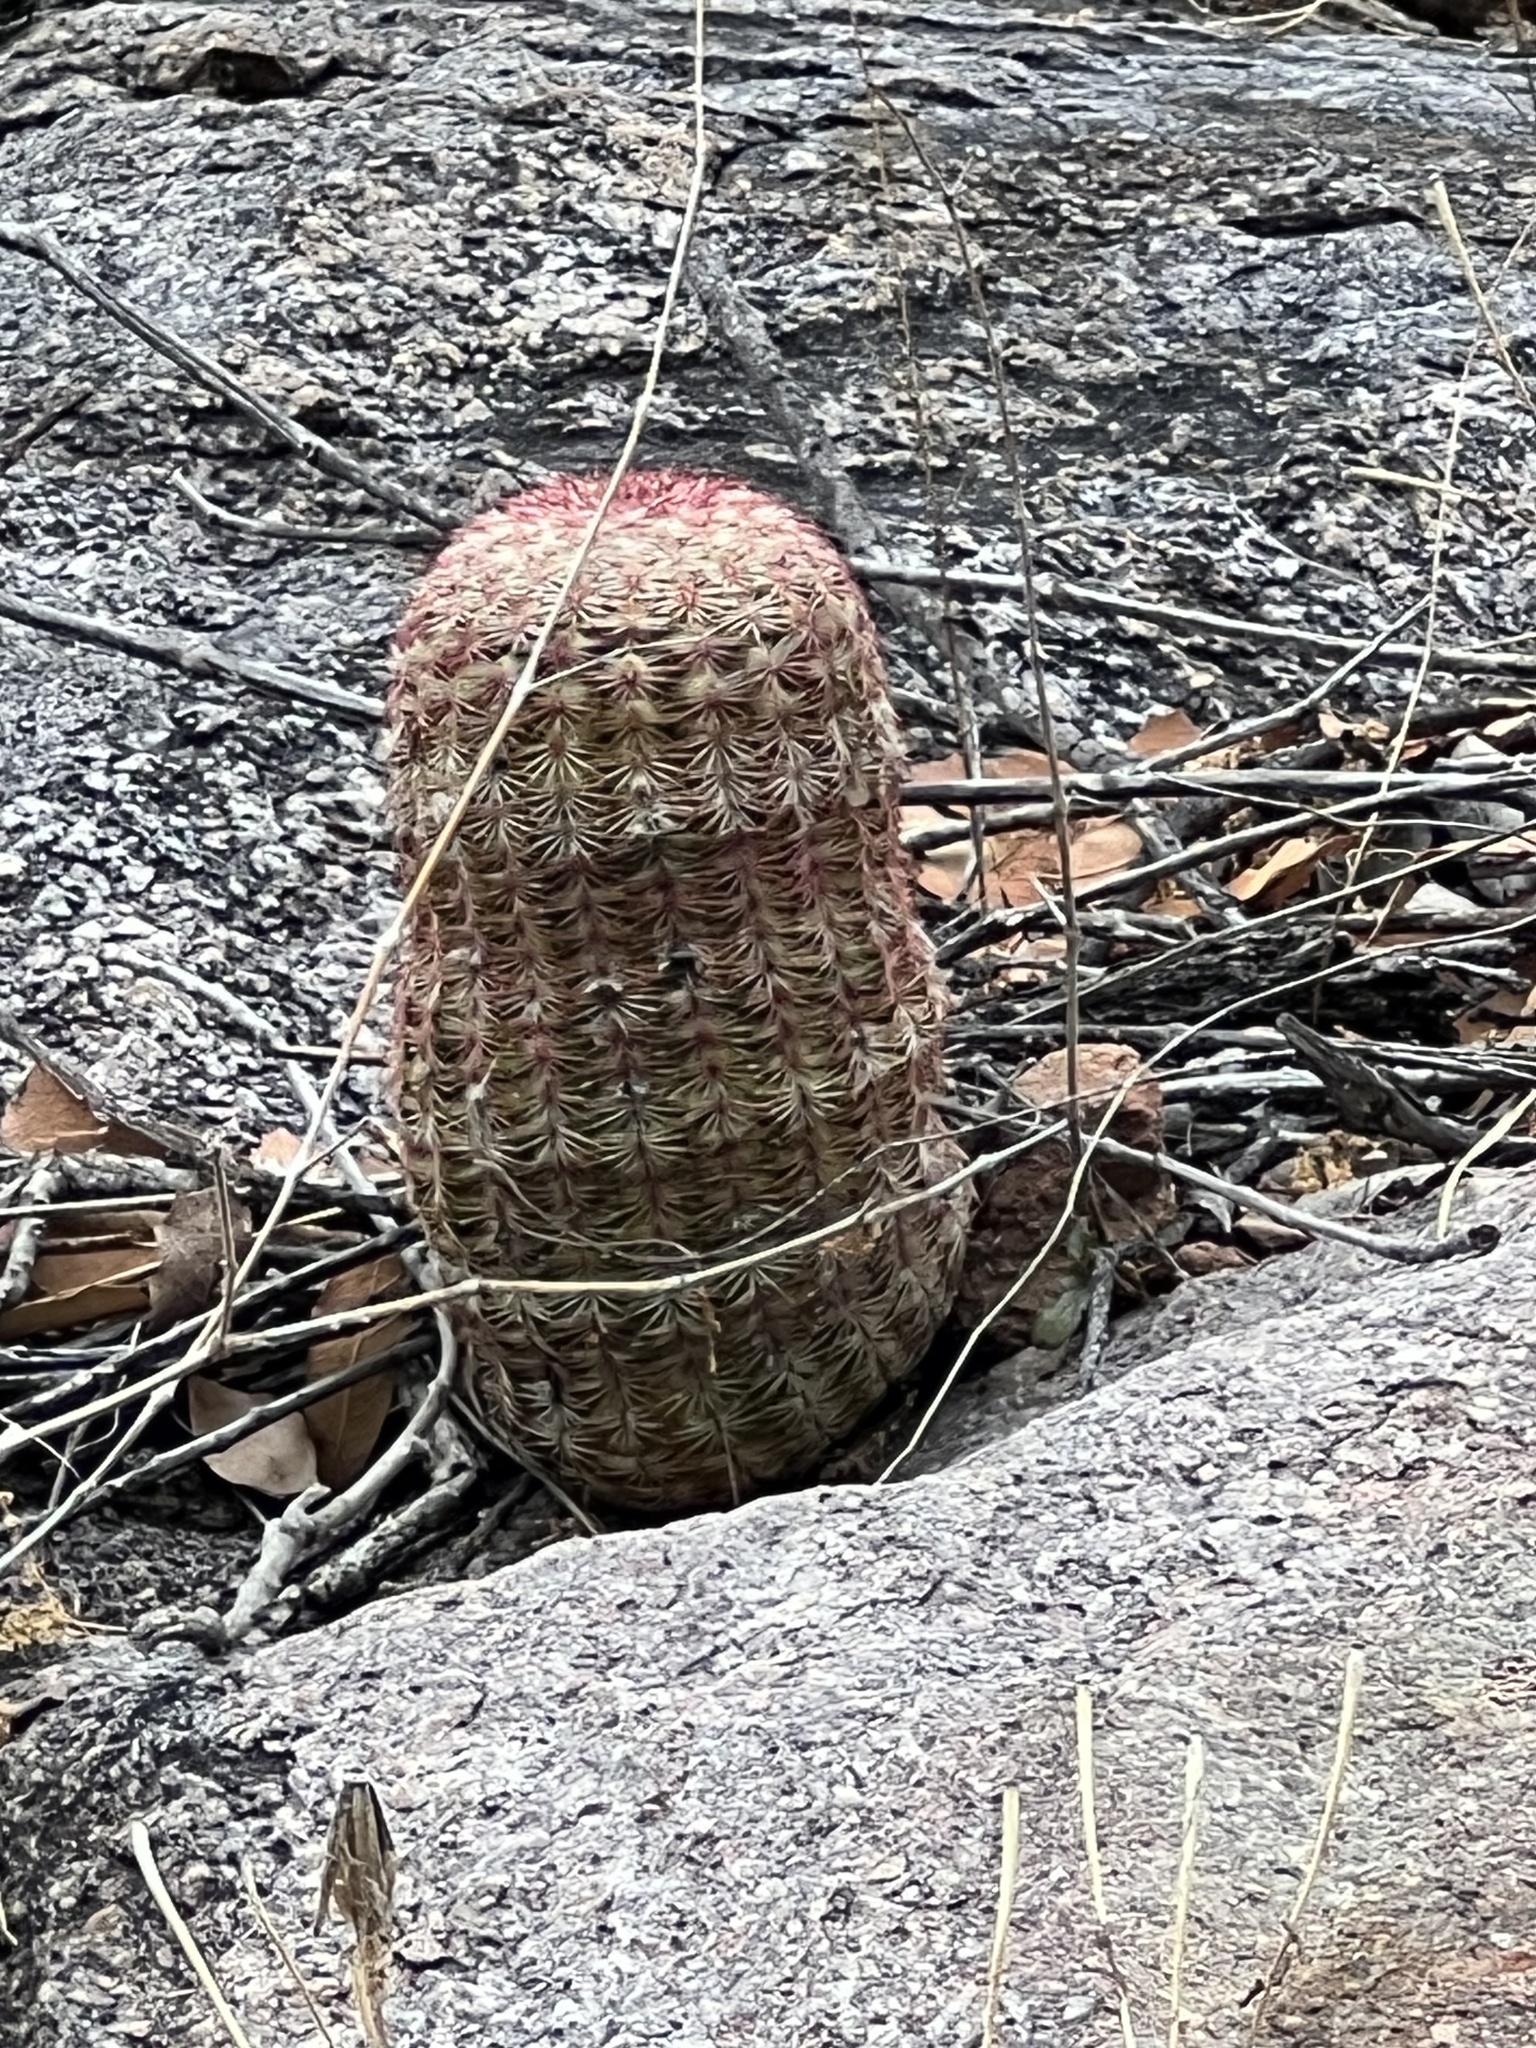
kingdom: Plantae
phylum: Tracheophyta
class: Magnoliopsida
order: Caryophyllales
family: Cactaceae
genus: Echinocereus
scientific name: Echinocereus rigidissimus
